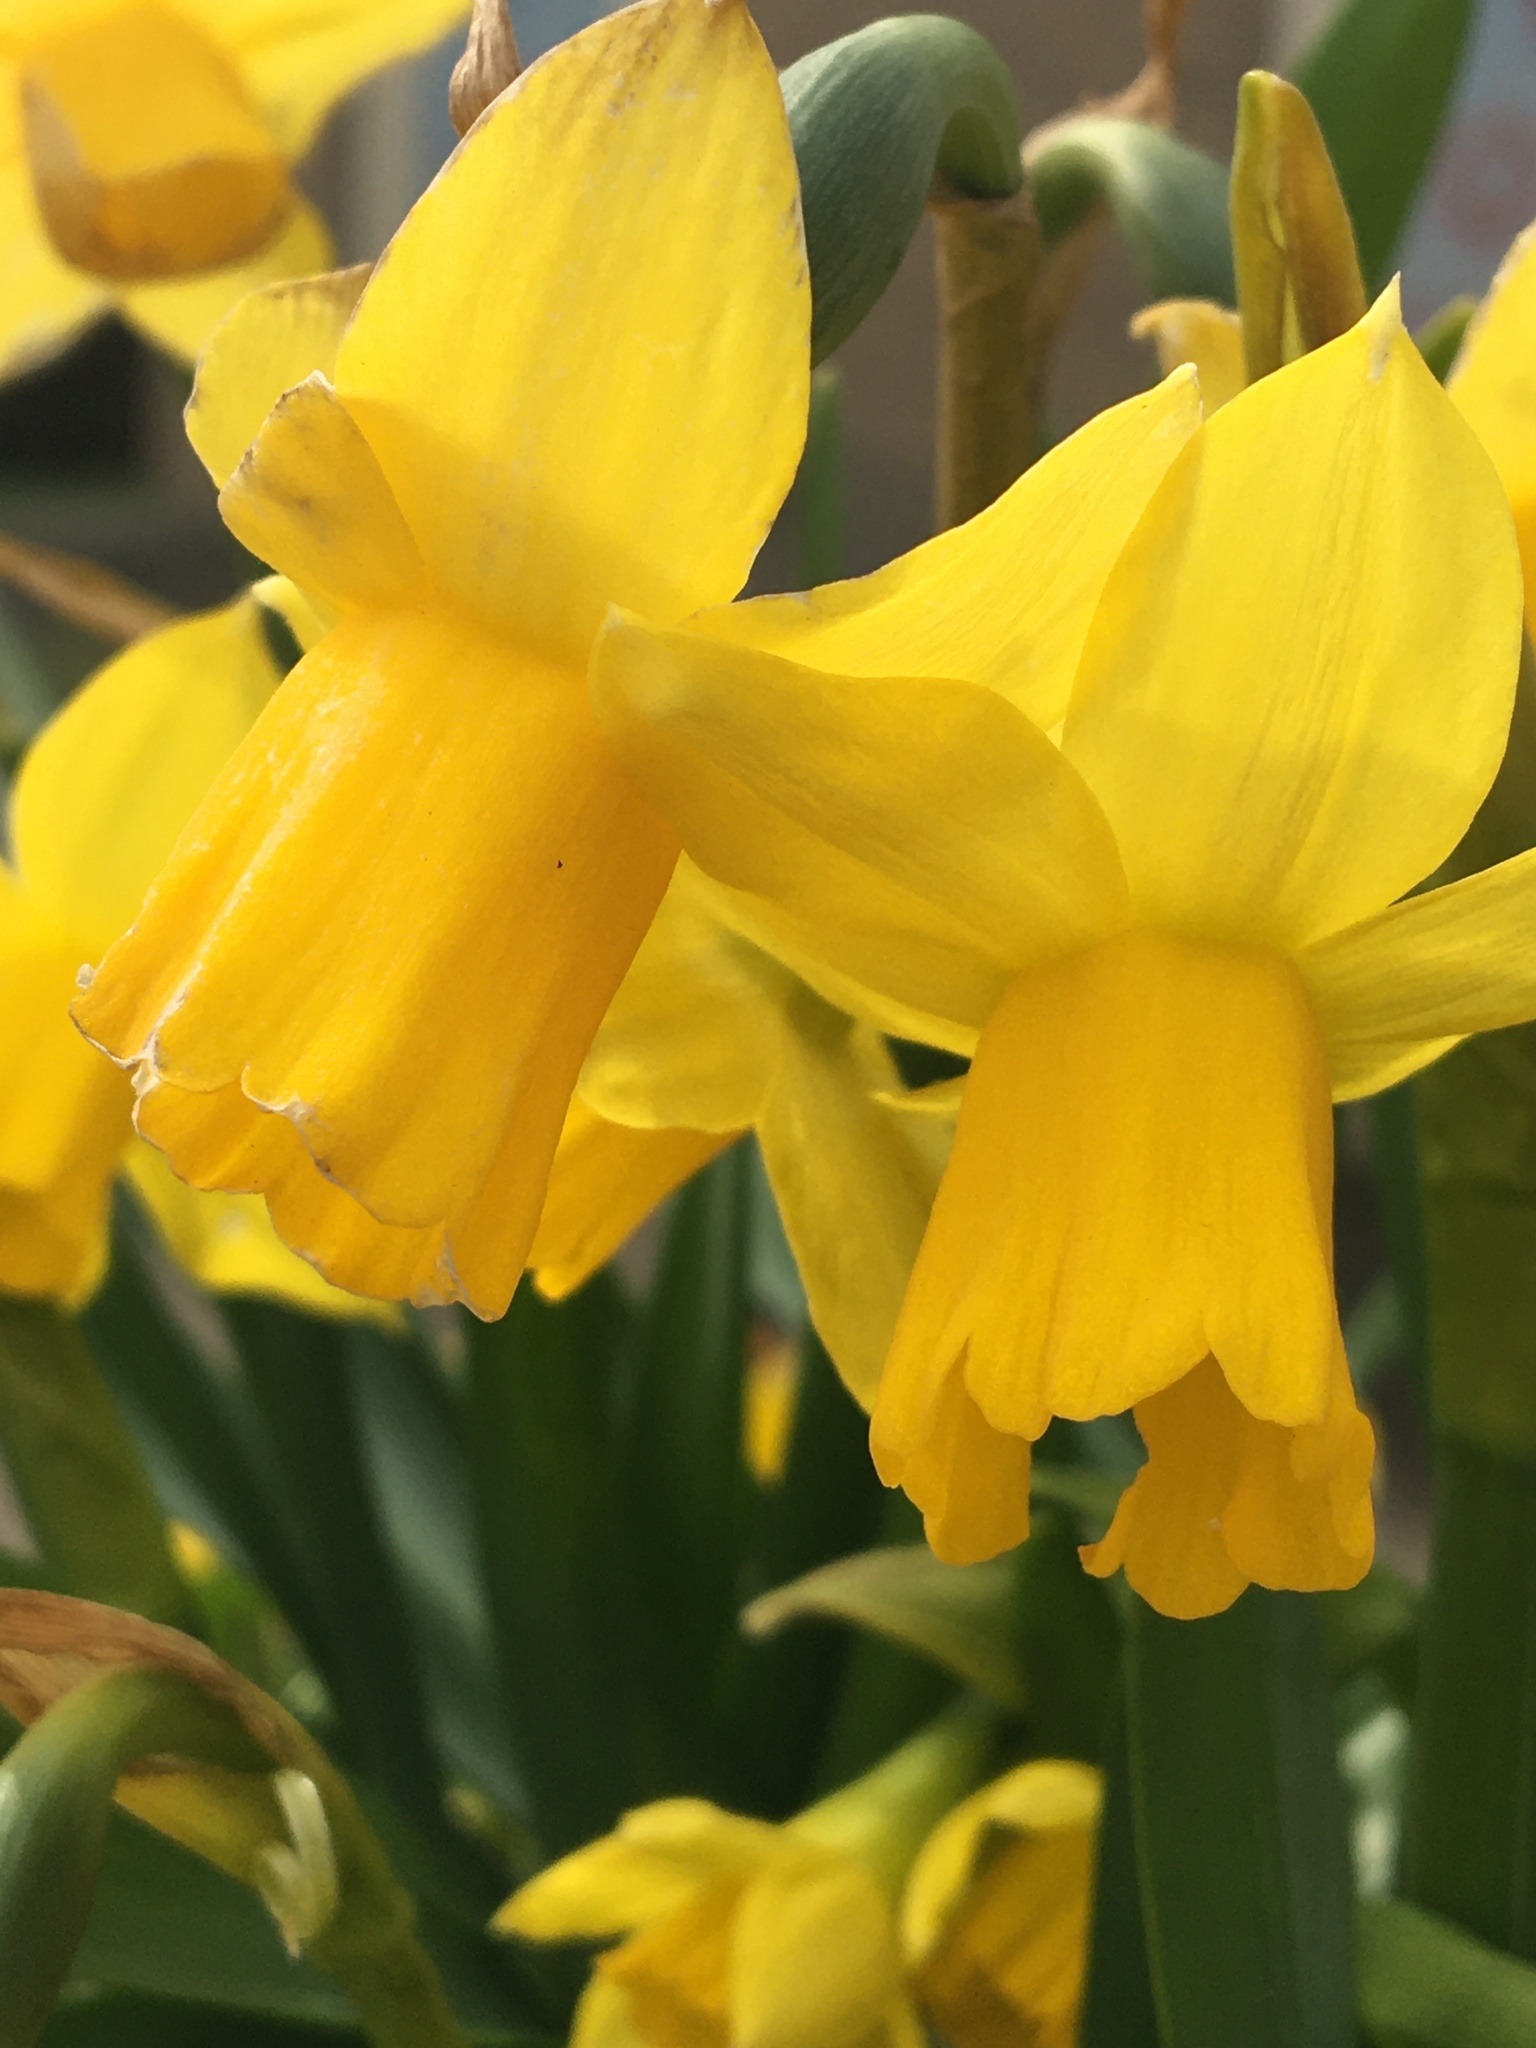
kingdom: Plantae
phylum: Tracheophyta
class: Liliopsida
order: Asparagales
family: Amaryllidaceae
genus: Narcissus
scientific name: Narcissus pseudonarcissus
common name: Daffodil
